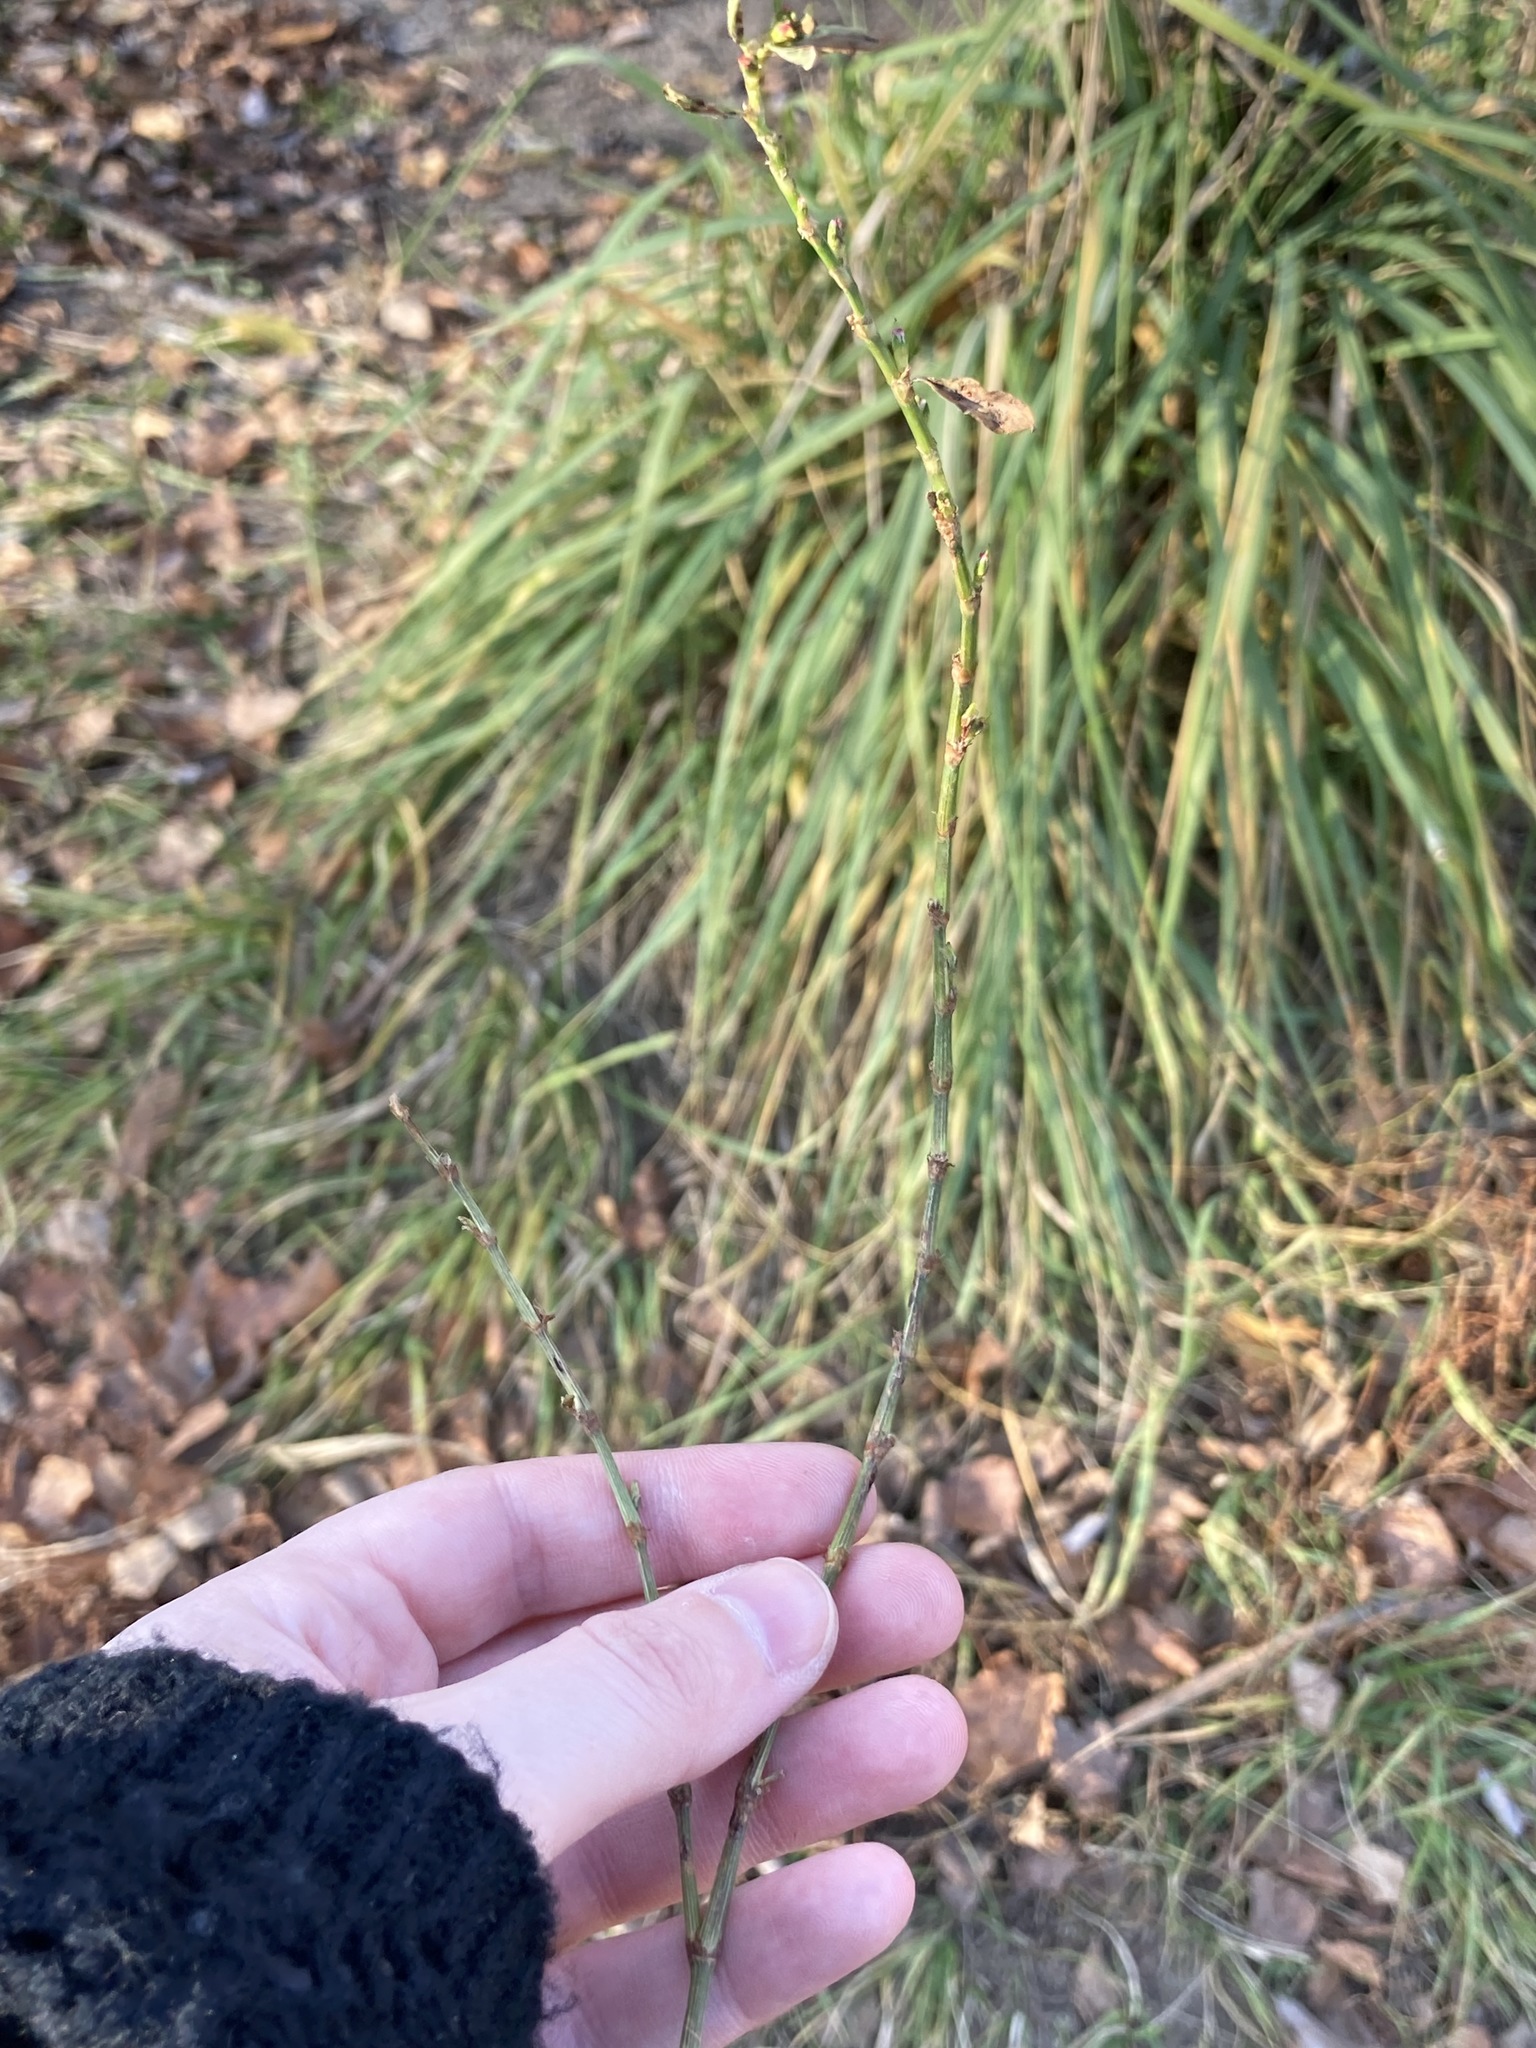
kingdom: Plantae
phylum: Tracheophyta
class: Magnoliopsida
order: Caryophyllales
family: Polygonaceae
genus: Polygonum
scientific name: Polygonum
